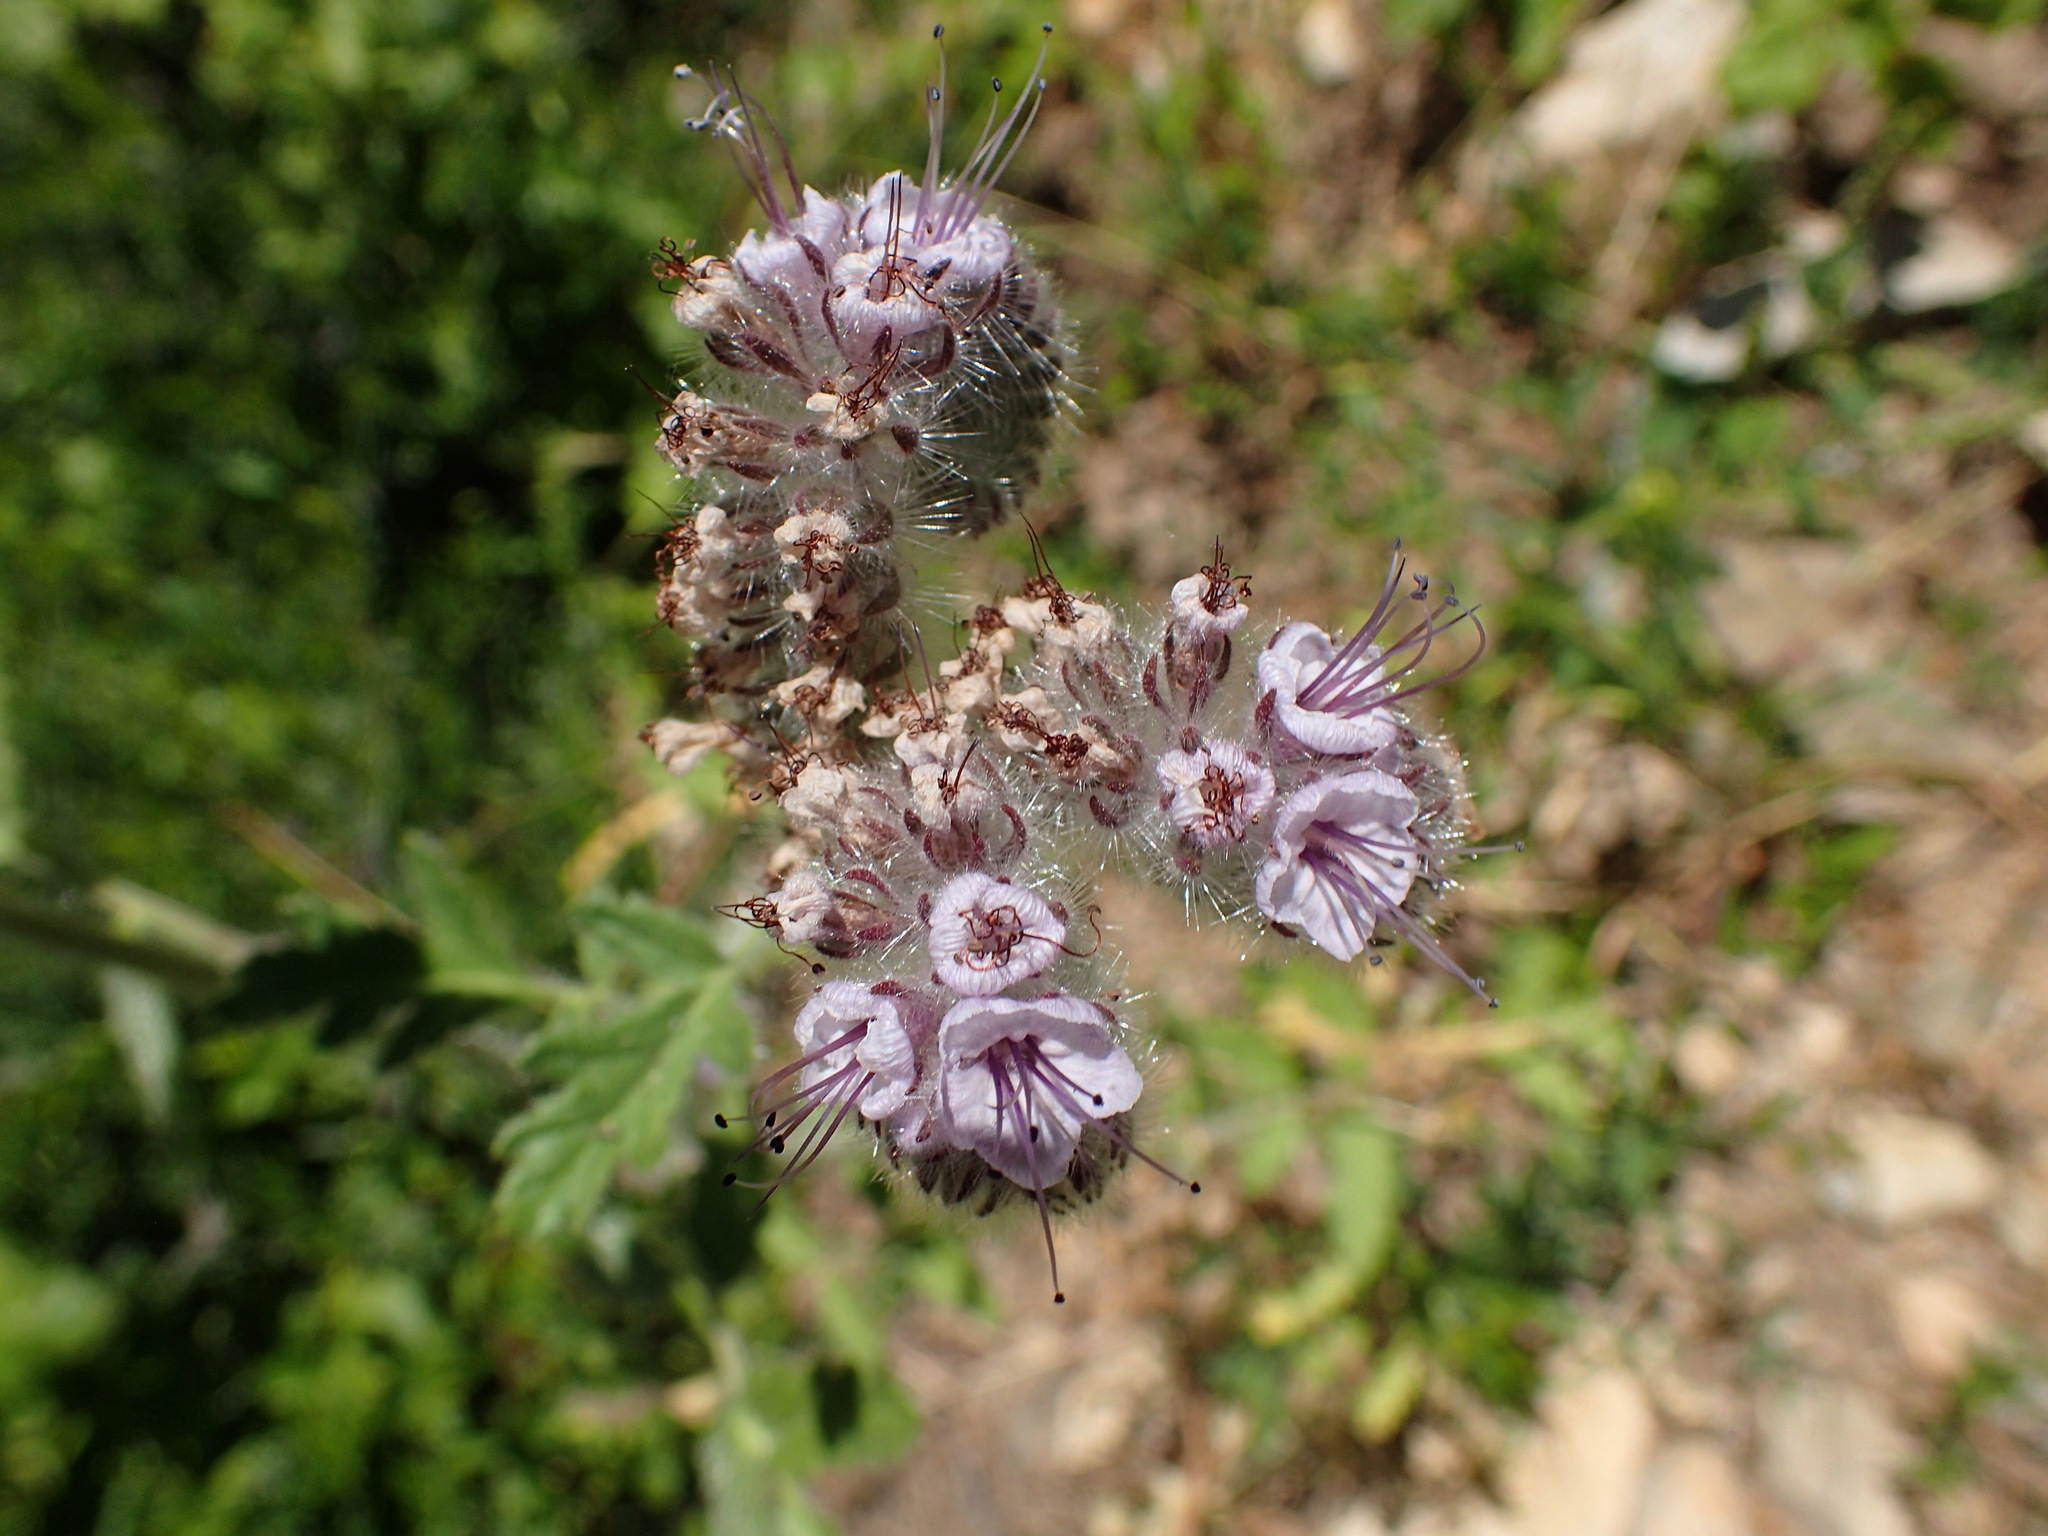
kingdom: Plantae
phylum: Tracheophyta
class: Magnoliopsida
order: Boraginales
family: Hydrophyllaceae
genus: Phacelia
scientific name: Phacelia hubbyi
